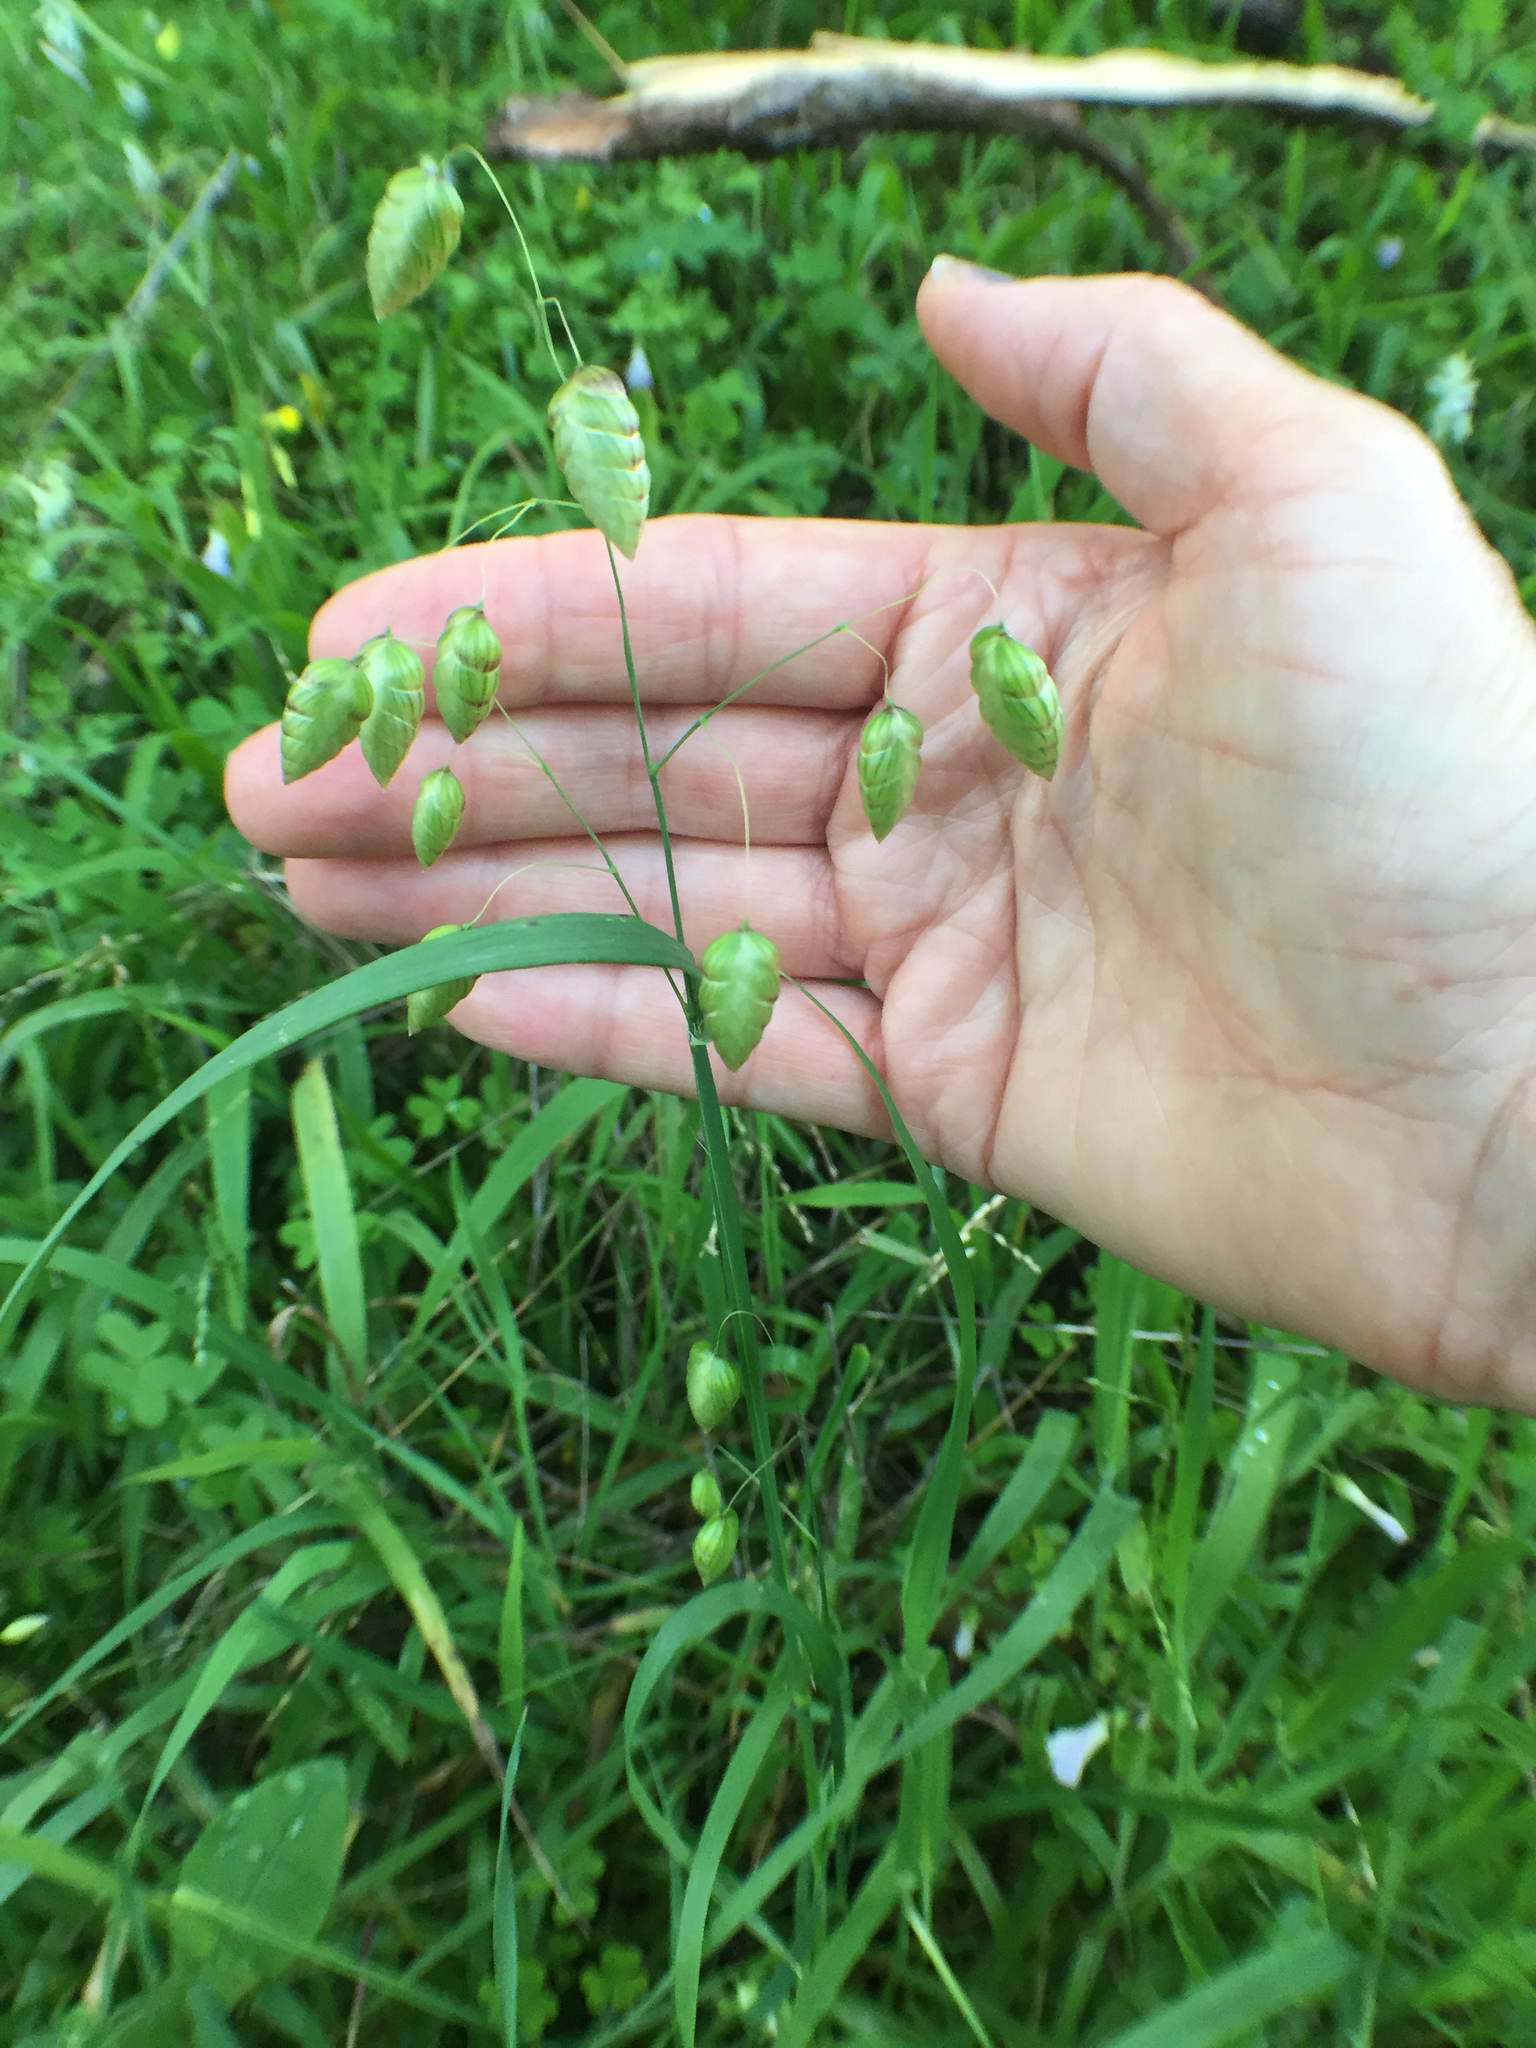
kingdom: Plantae
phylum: Tracheophyta
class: Liliopsida
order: Poales
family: Poaceae
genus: Briza
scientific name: Briza maxima
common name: Big quakinggrass
